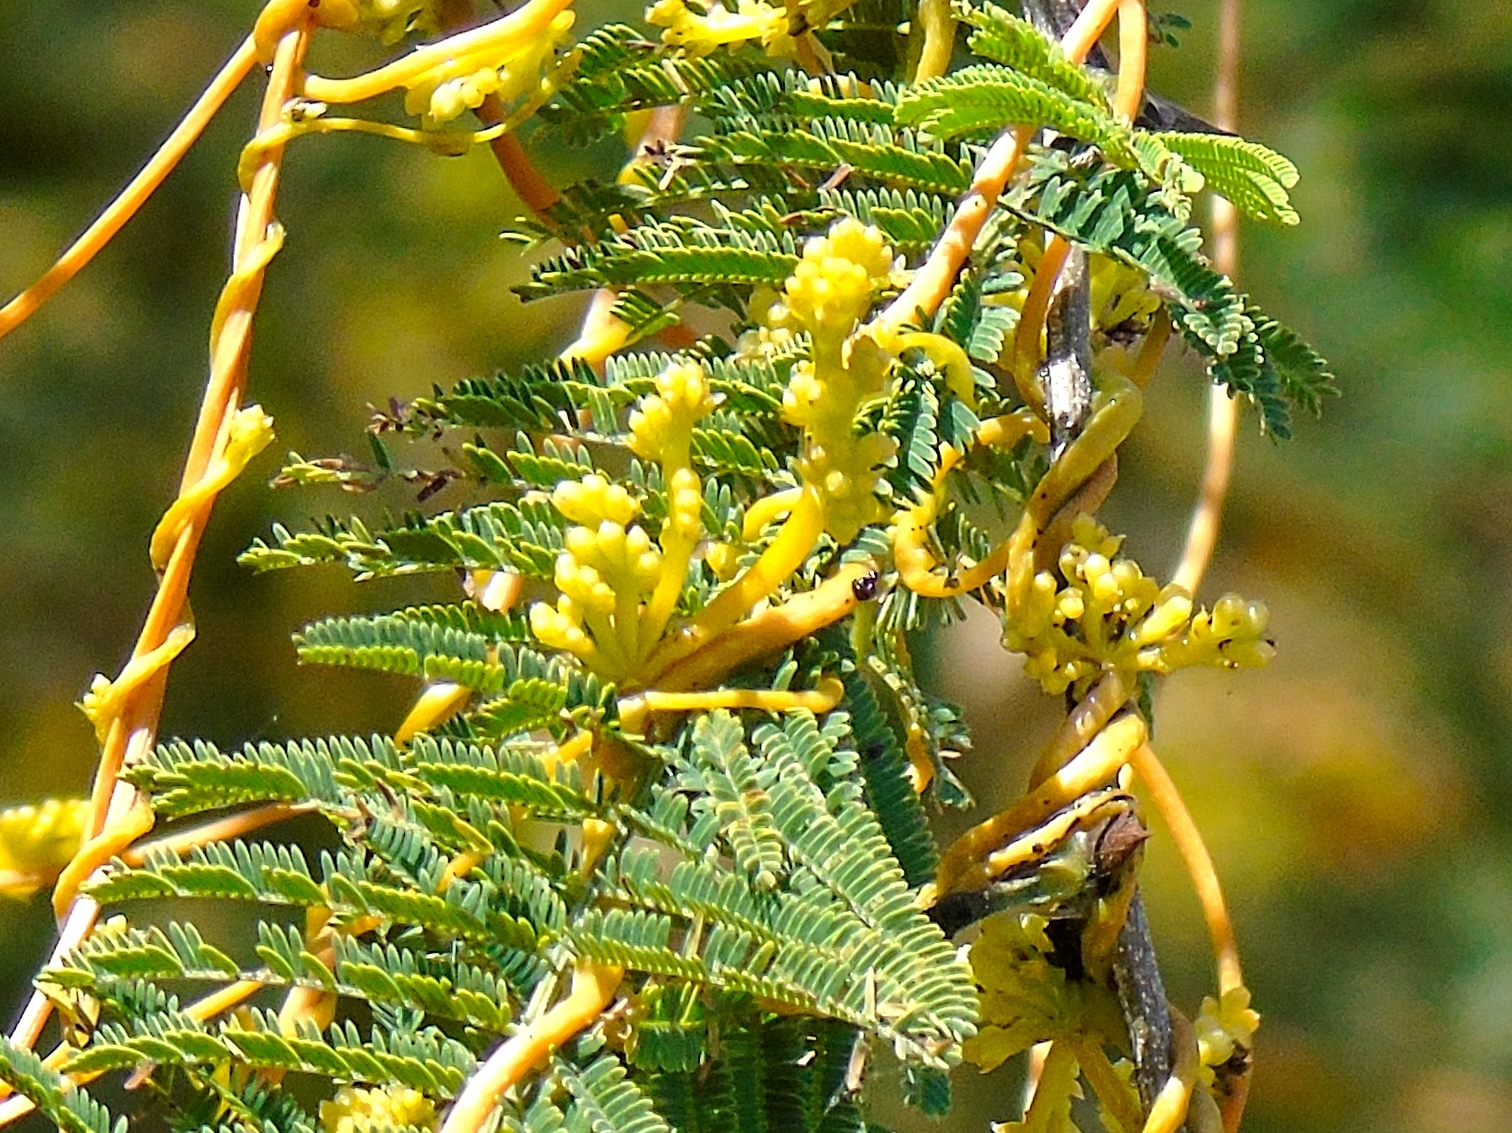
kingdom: Plantae
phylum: Tracheophyta
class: Magnoliopsida
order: Solanales
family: Convolvulaceae
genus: Cuscuta
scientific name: Cuscuta
